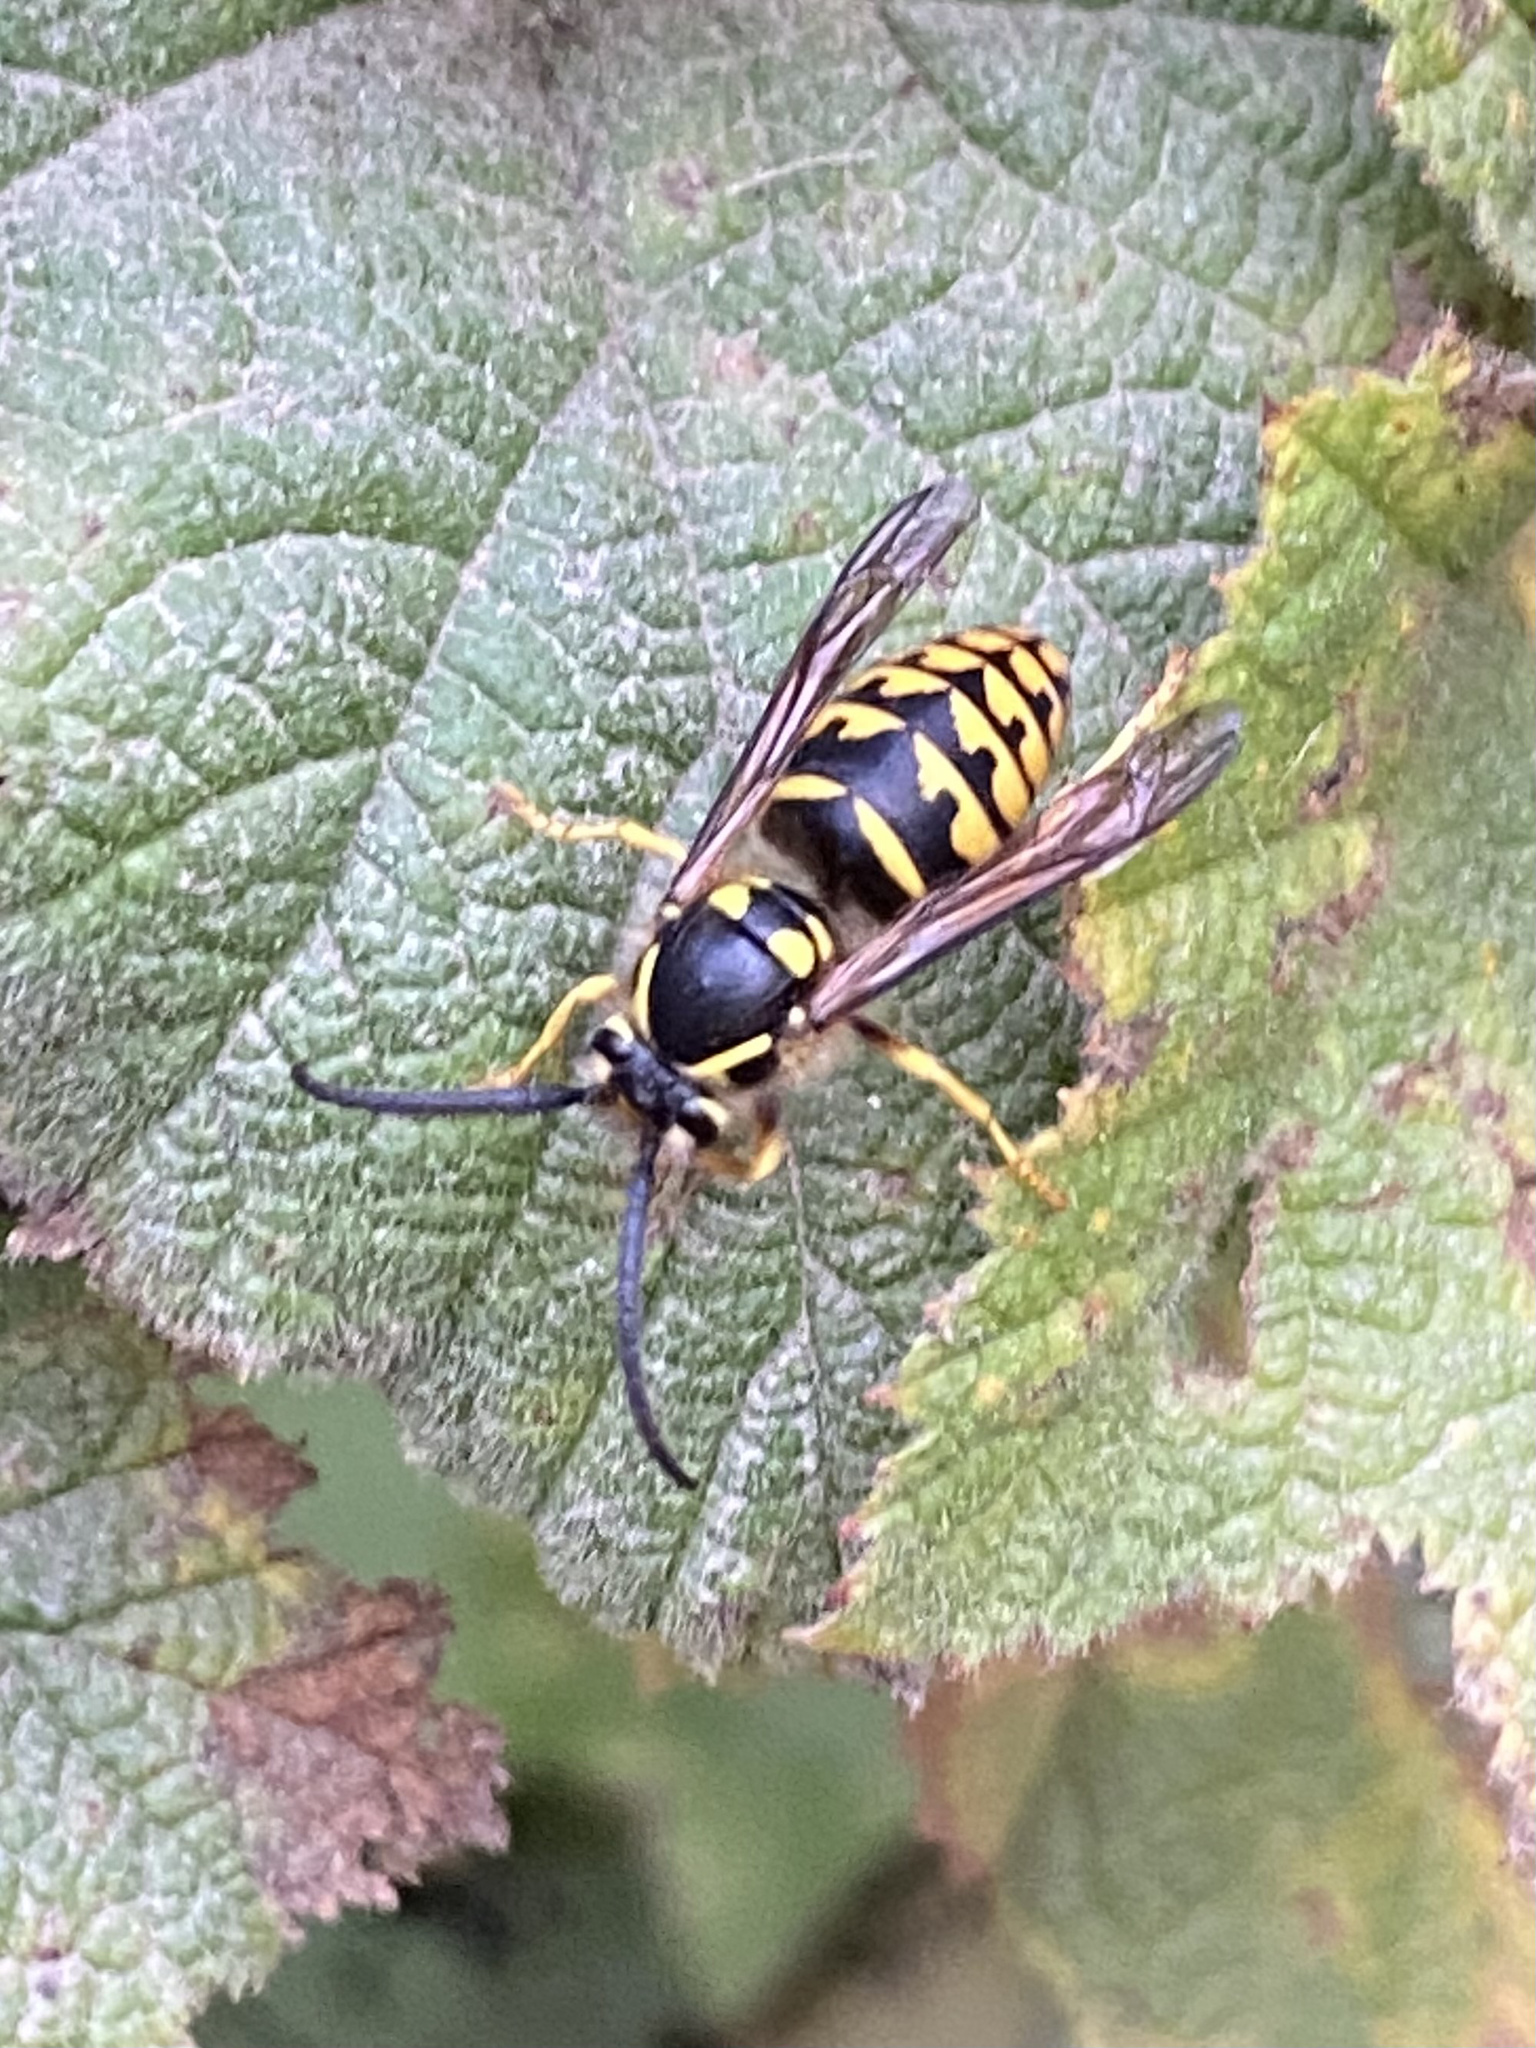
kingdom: Animalia
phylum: Arthropoda
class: Insecta
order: Hymenoptera
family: Vespidae
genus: Dolichovespula
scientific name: Dolichovespula arenaria
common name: Aerial yellowjacket
